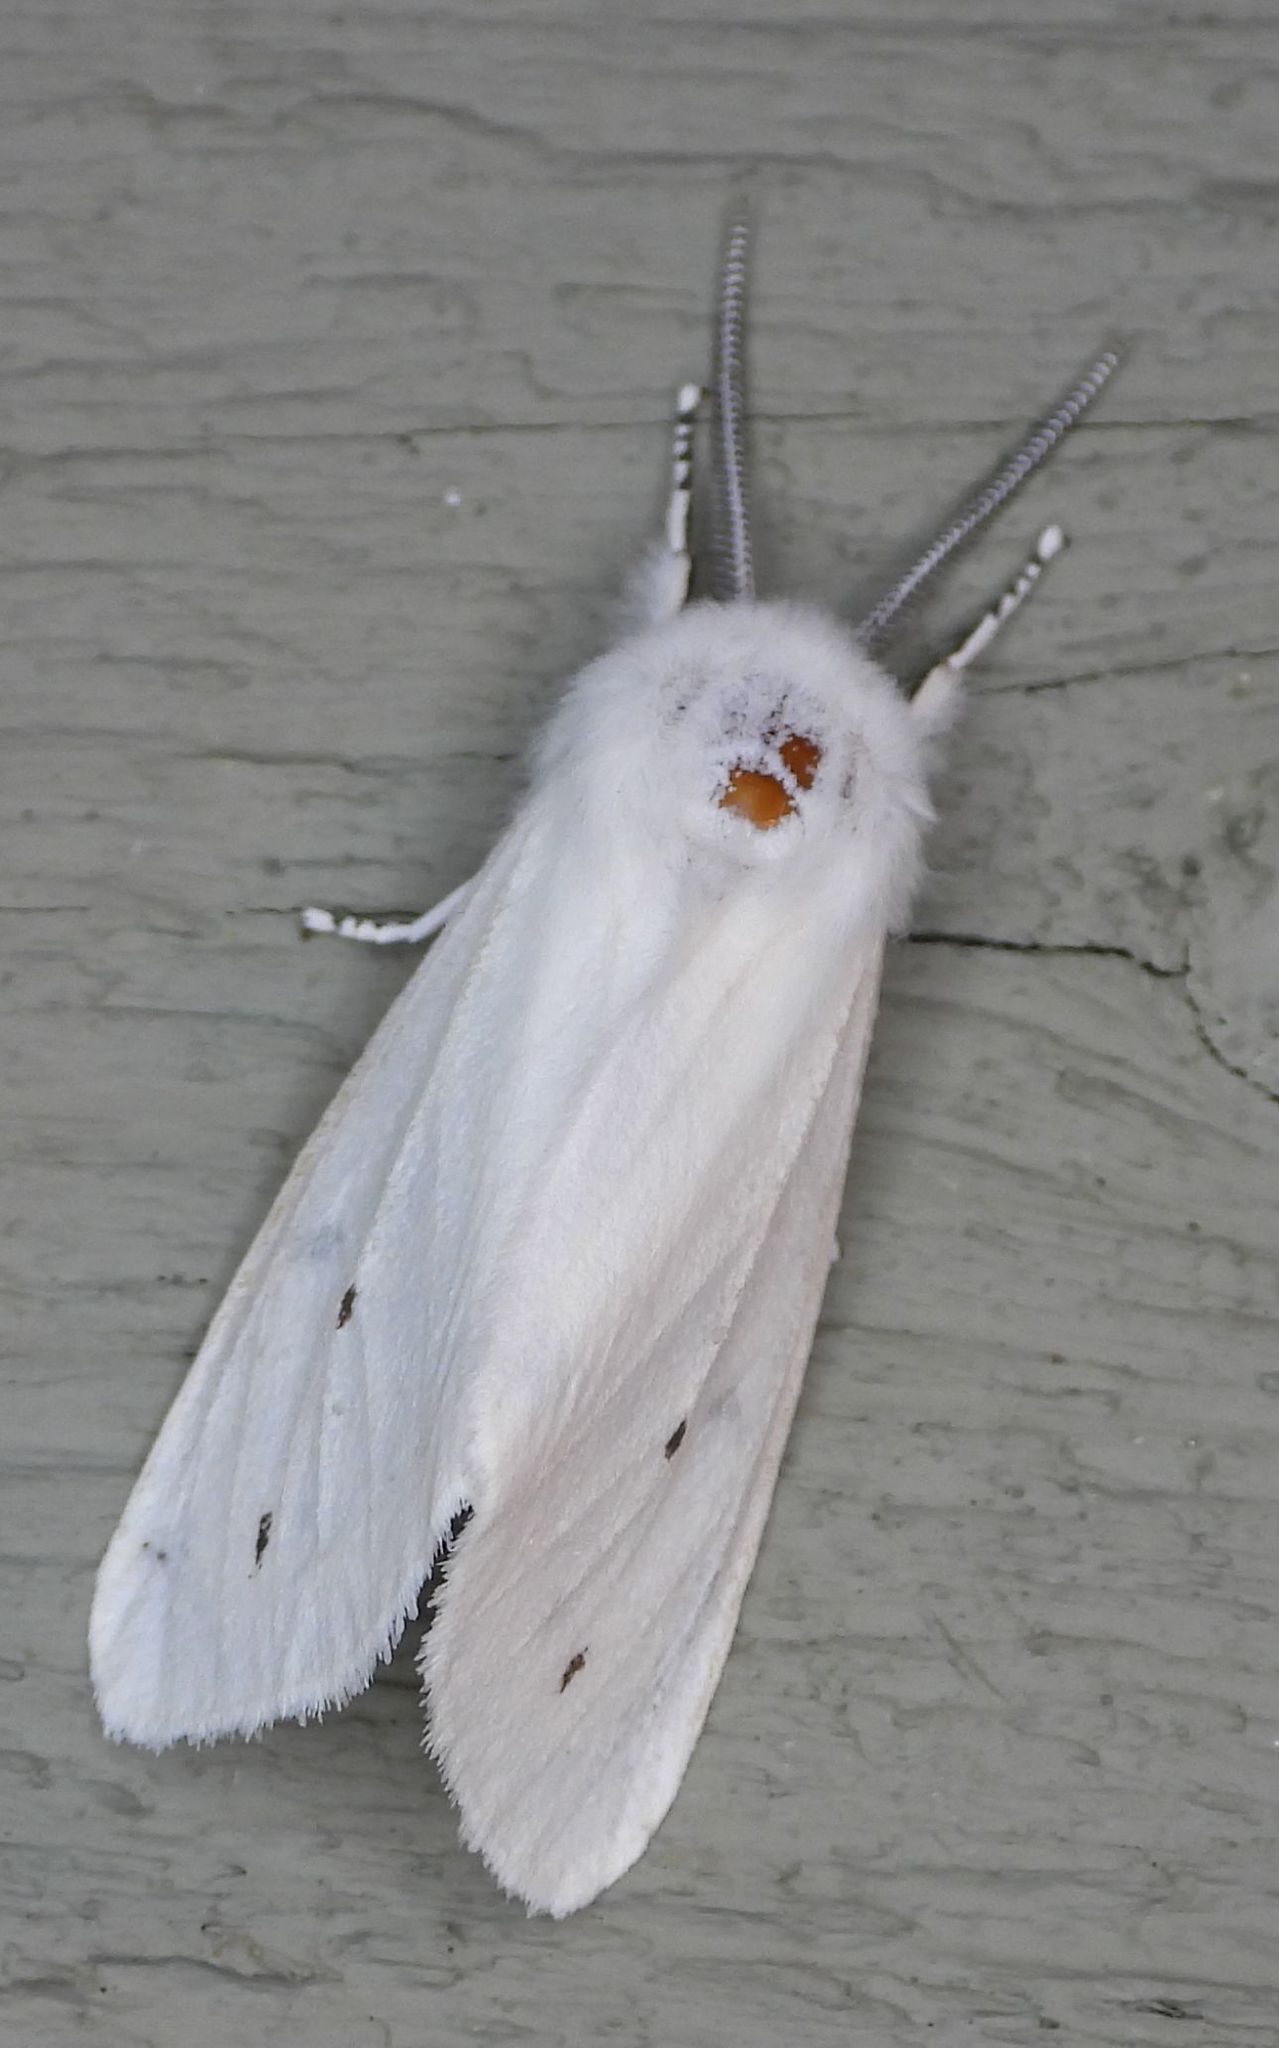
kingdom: Animalia
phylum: Arthropoda
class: Insecta
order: Lepidoptera
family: Erebidae
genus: Spilosoma
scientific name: Spilosoma virginica
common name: Virginia tiger moth
